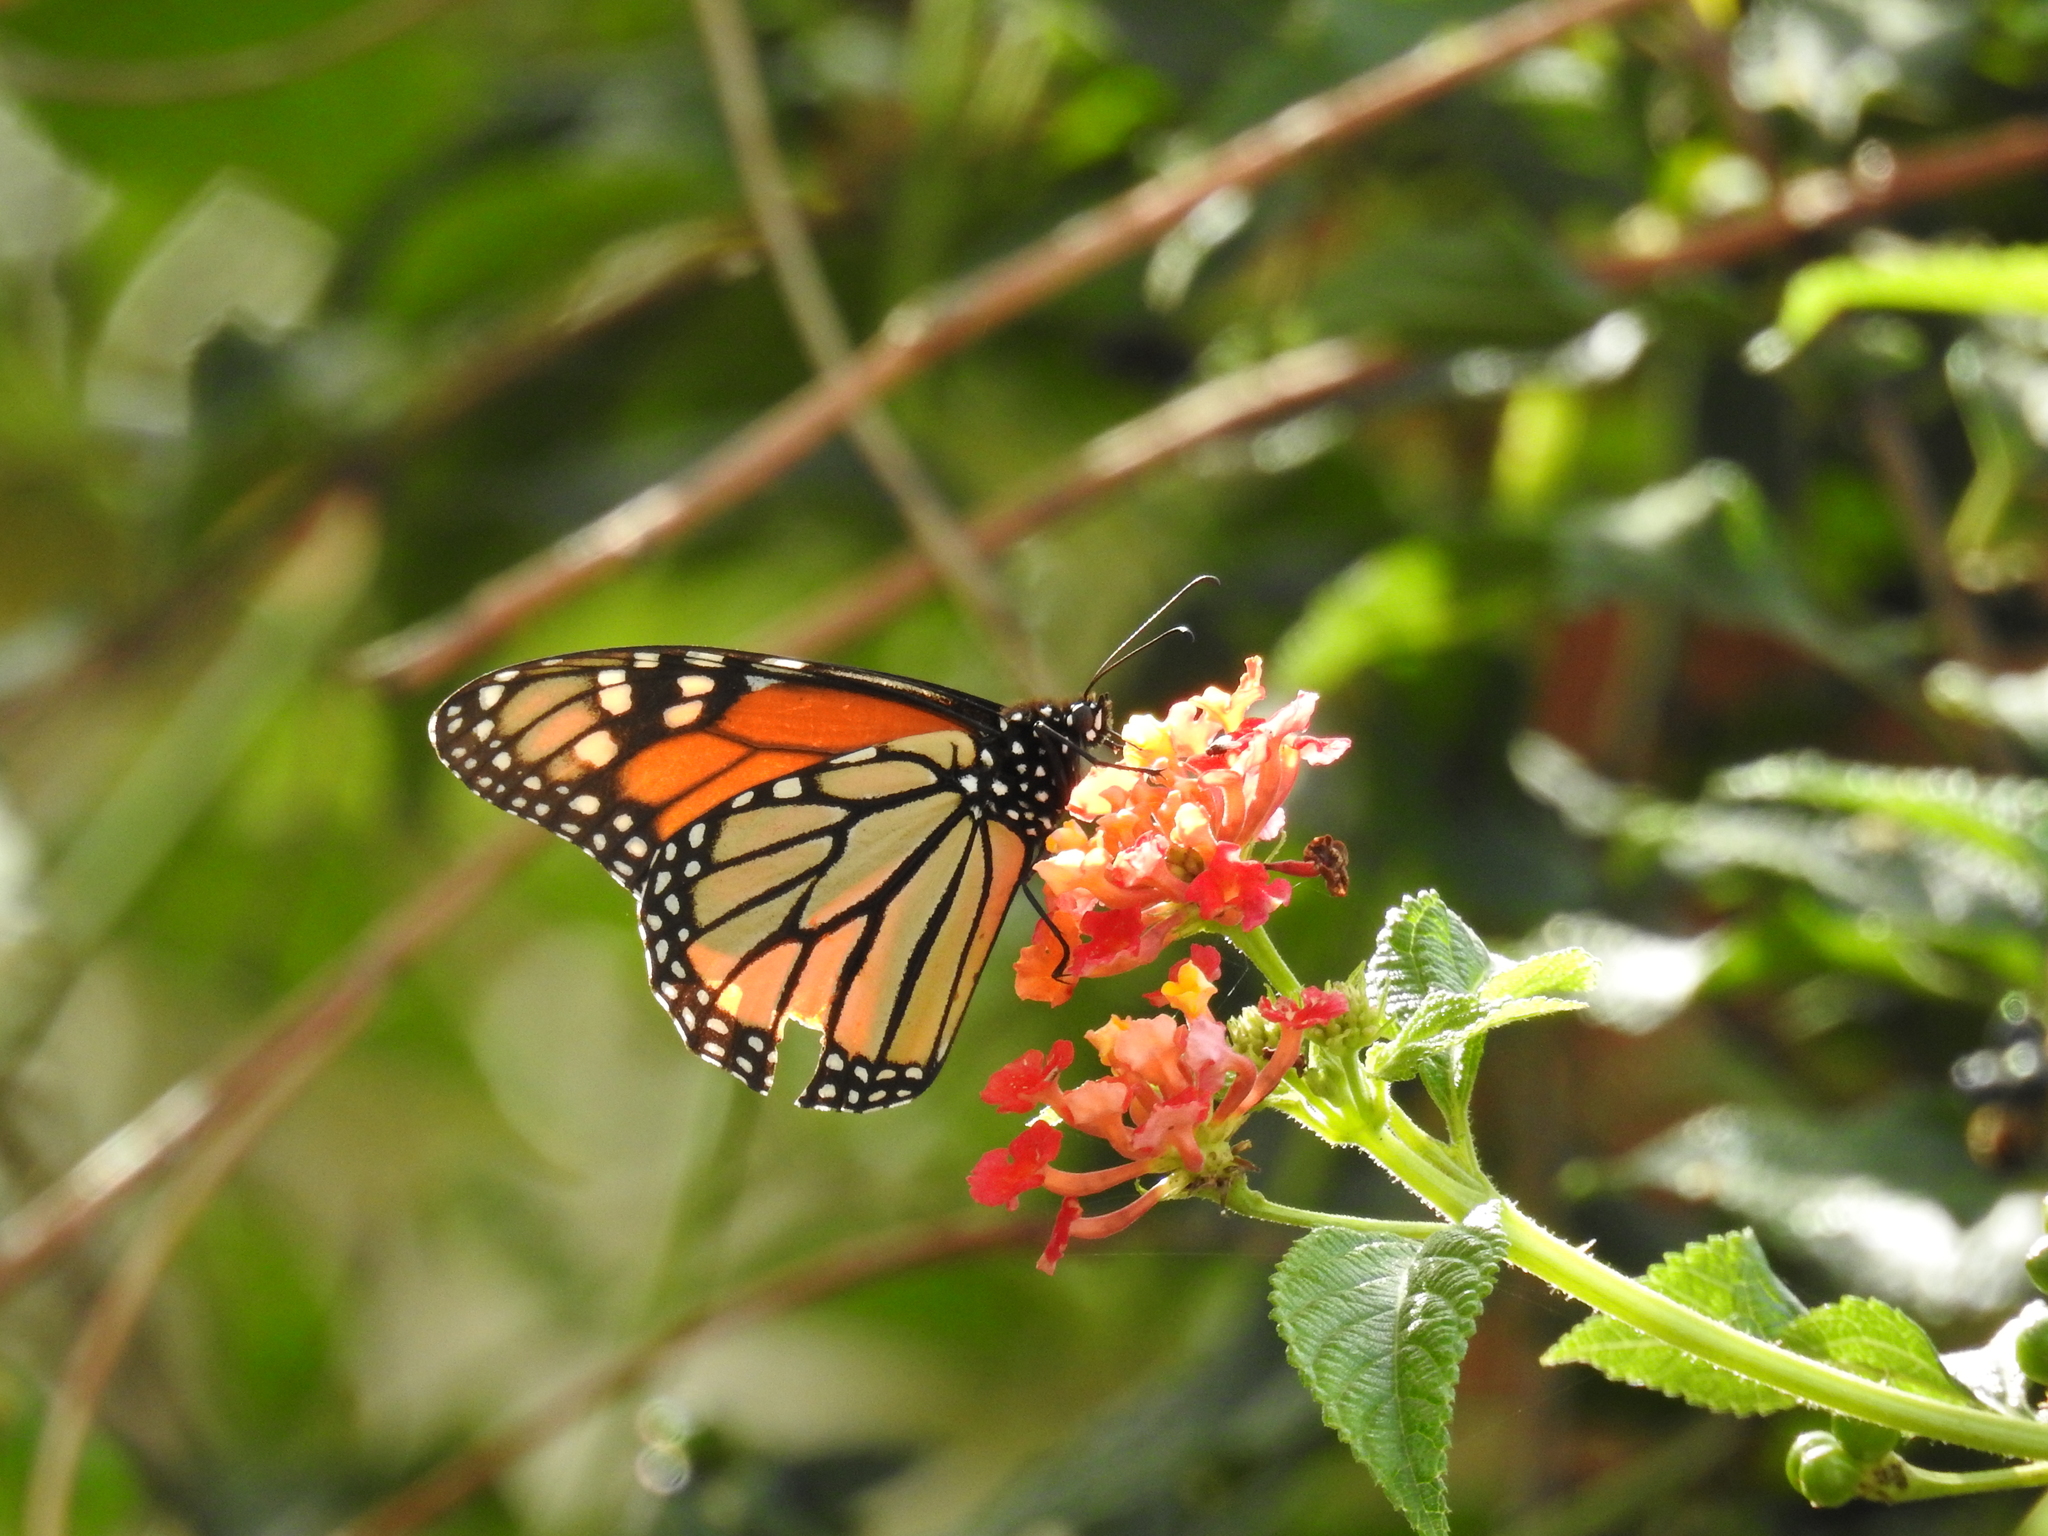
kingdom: Animalia
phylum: Arthropoda
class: Insecta
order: Lepidoptera
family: Nymphalidae
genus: Danaus
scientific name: Danaus plexippus
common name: Monarch
